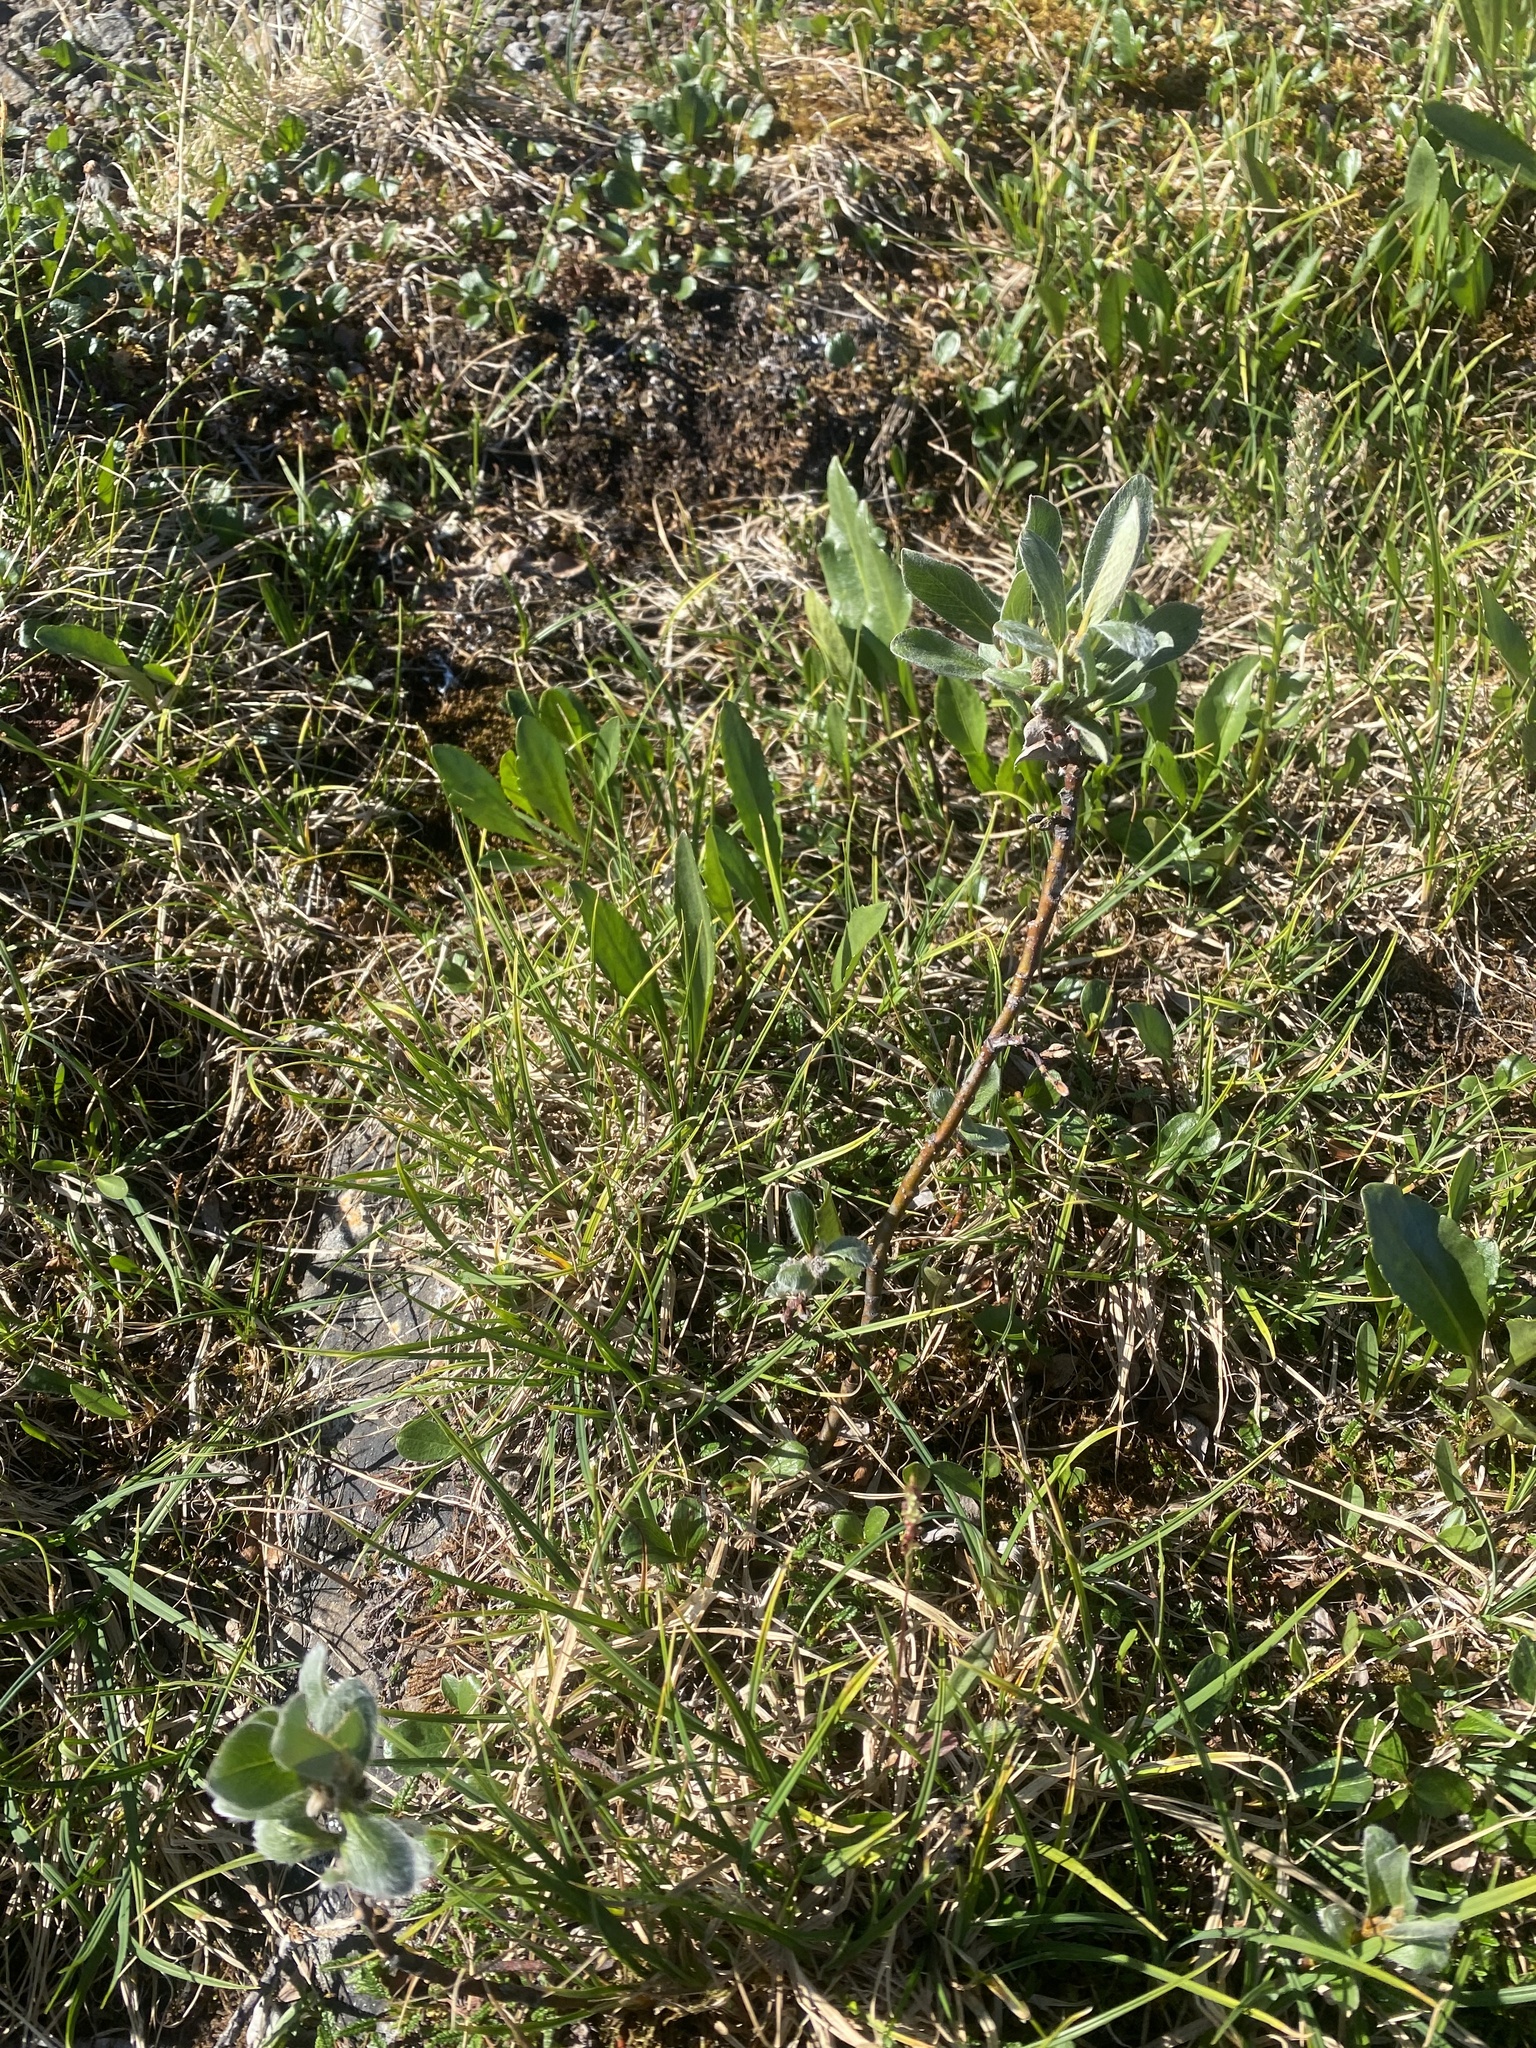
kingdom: Plantae
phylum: Tracheophyta
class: Magnoliopsida
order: Malpighiales
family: Salicaceae
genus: Salix
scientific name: Salix glauca
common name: Glaucous willow
